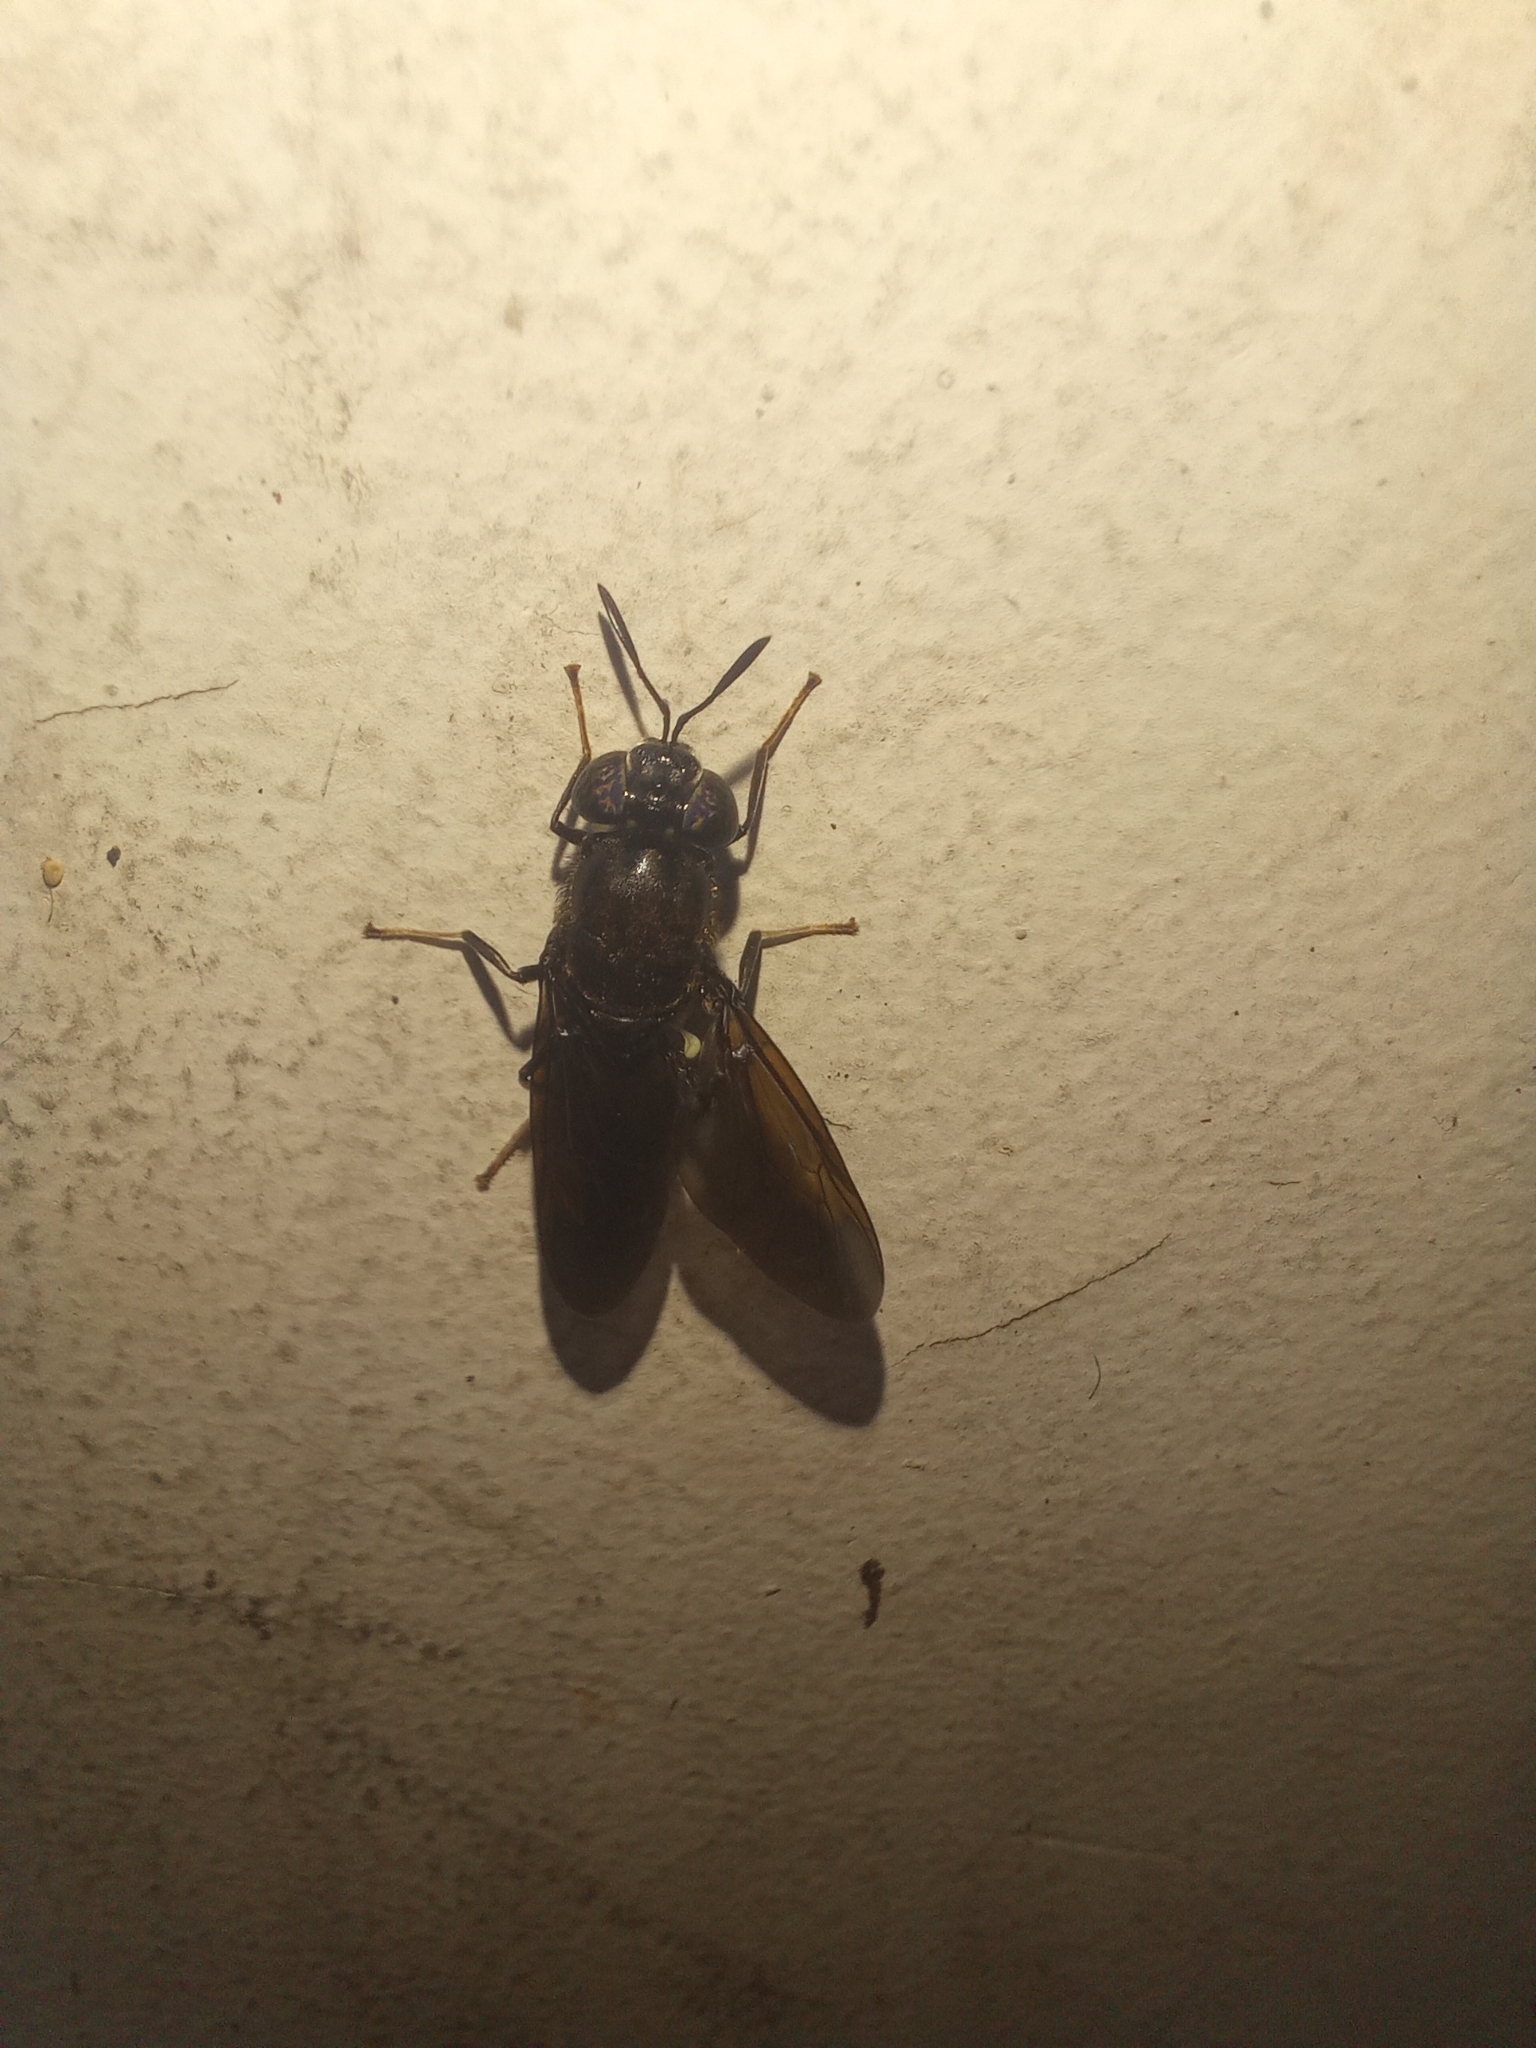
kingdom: Animalia
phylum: Arthropoda
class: Insecta
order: Diptera
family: Stratiomyidae
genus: Hermetia
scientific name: Hermetia illucens
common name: Black soldier fly
